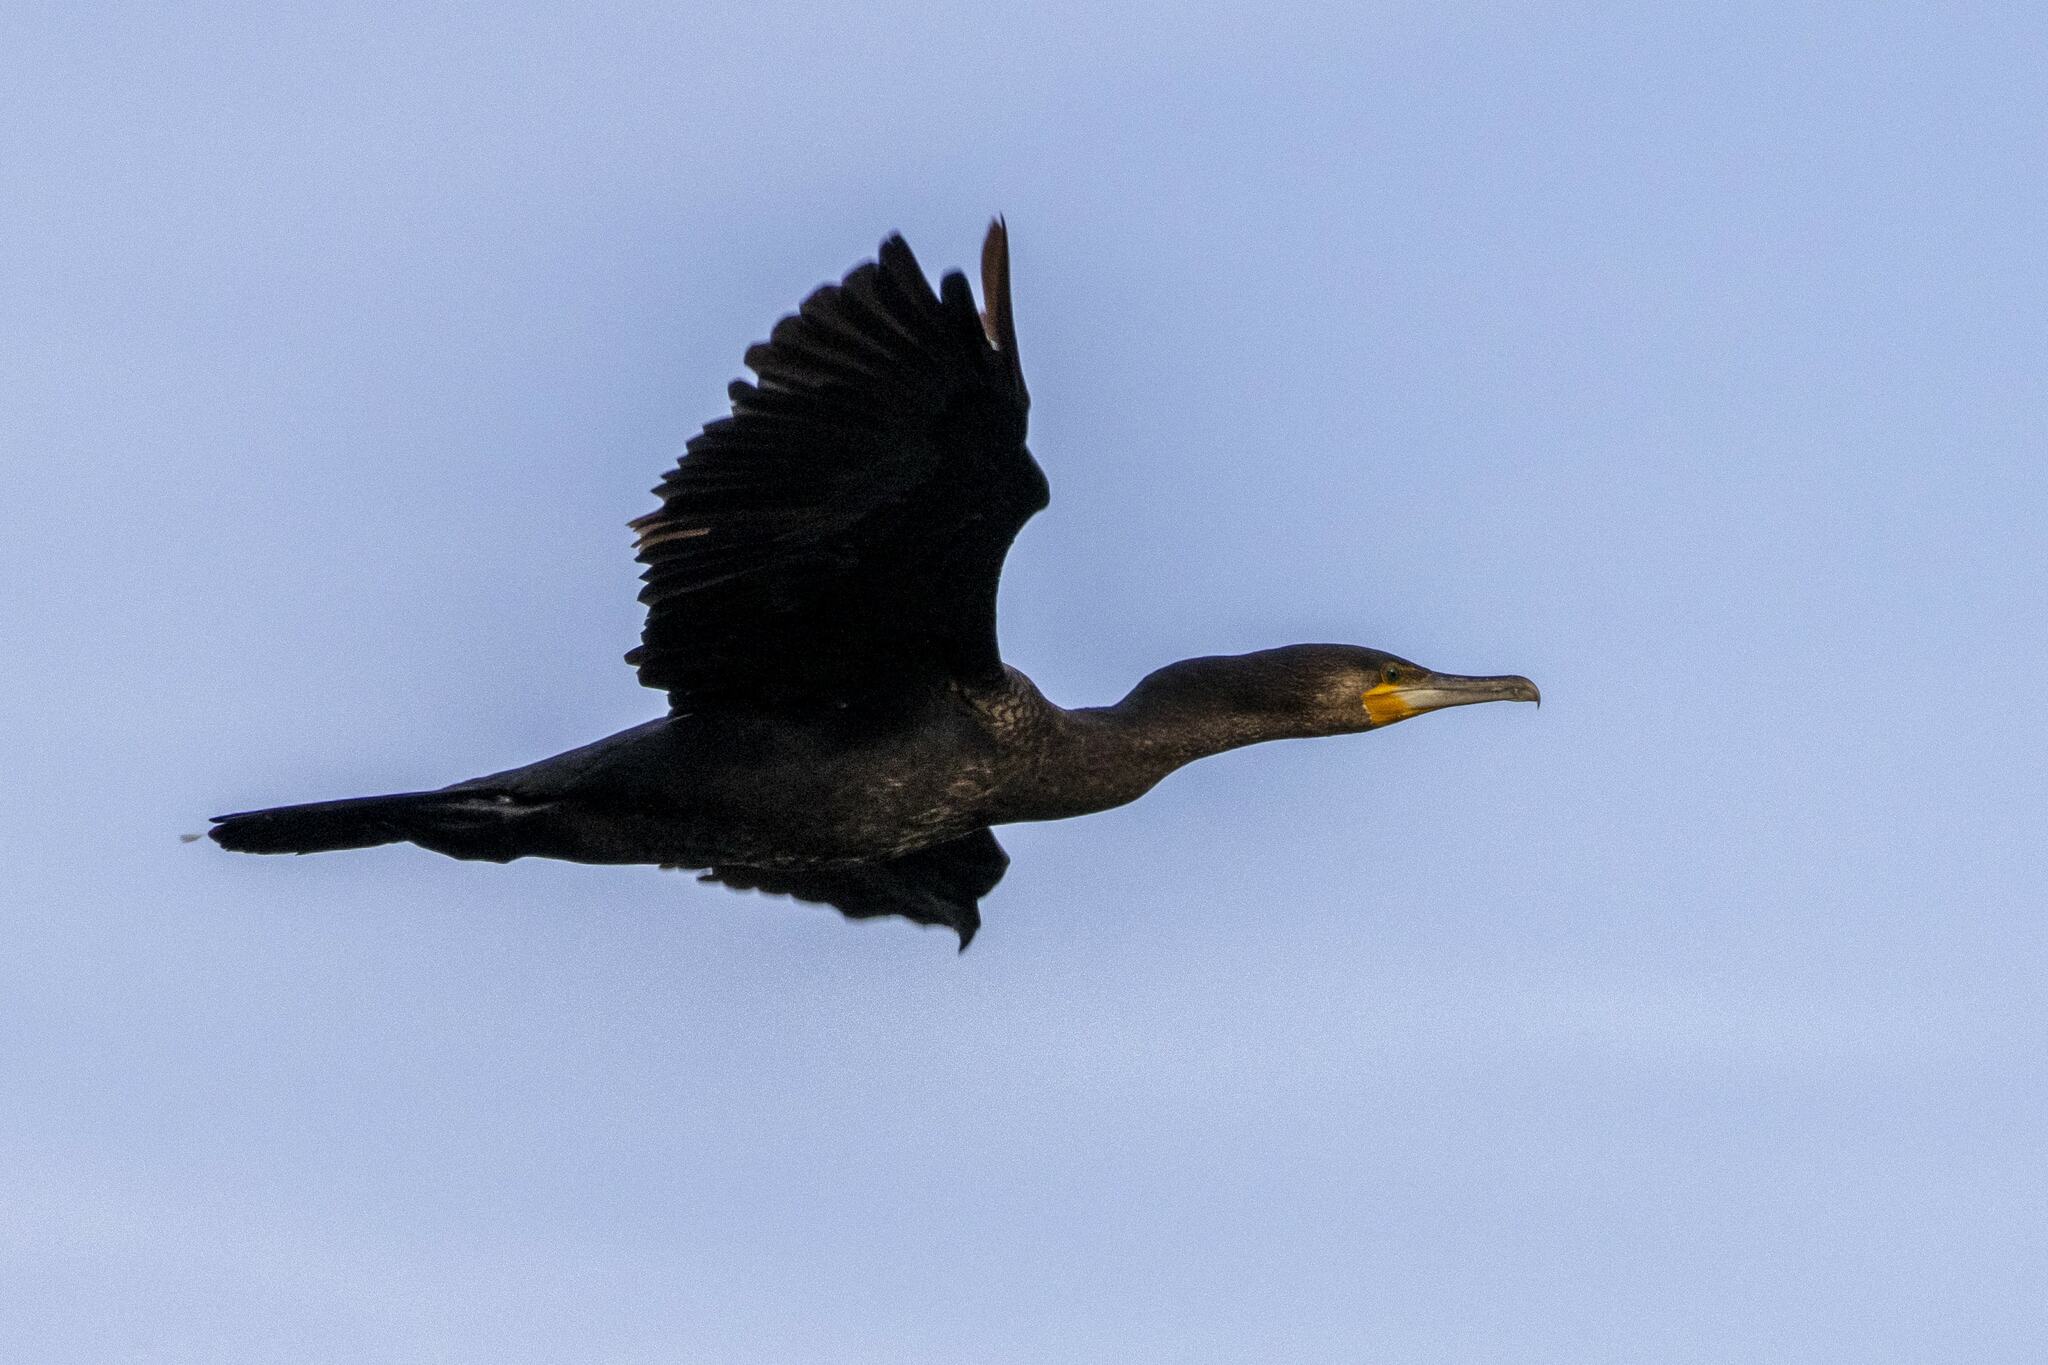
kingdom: Animalia
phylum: Chordata
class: Aves
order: Suliformes
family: Phalacrocoracidae
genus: Phalacrocorax
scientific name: Phalacrocorax carbo
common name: Great cormorant
